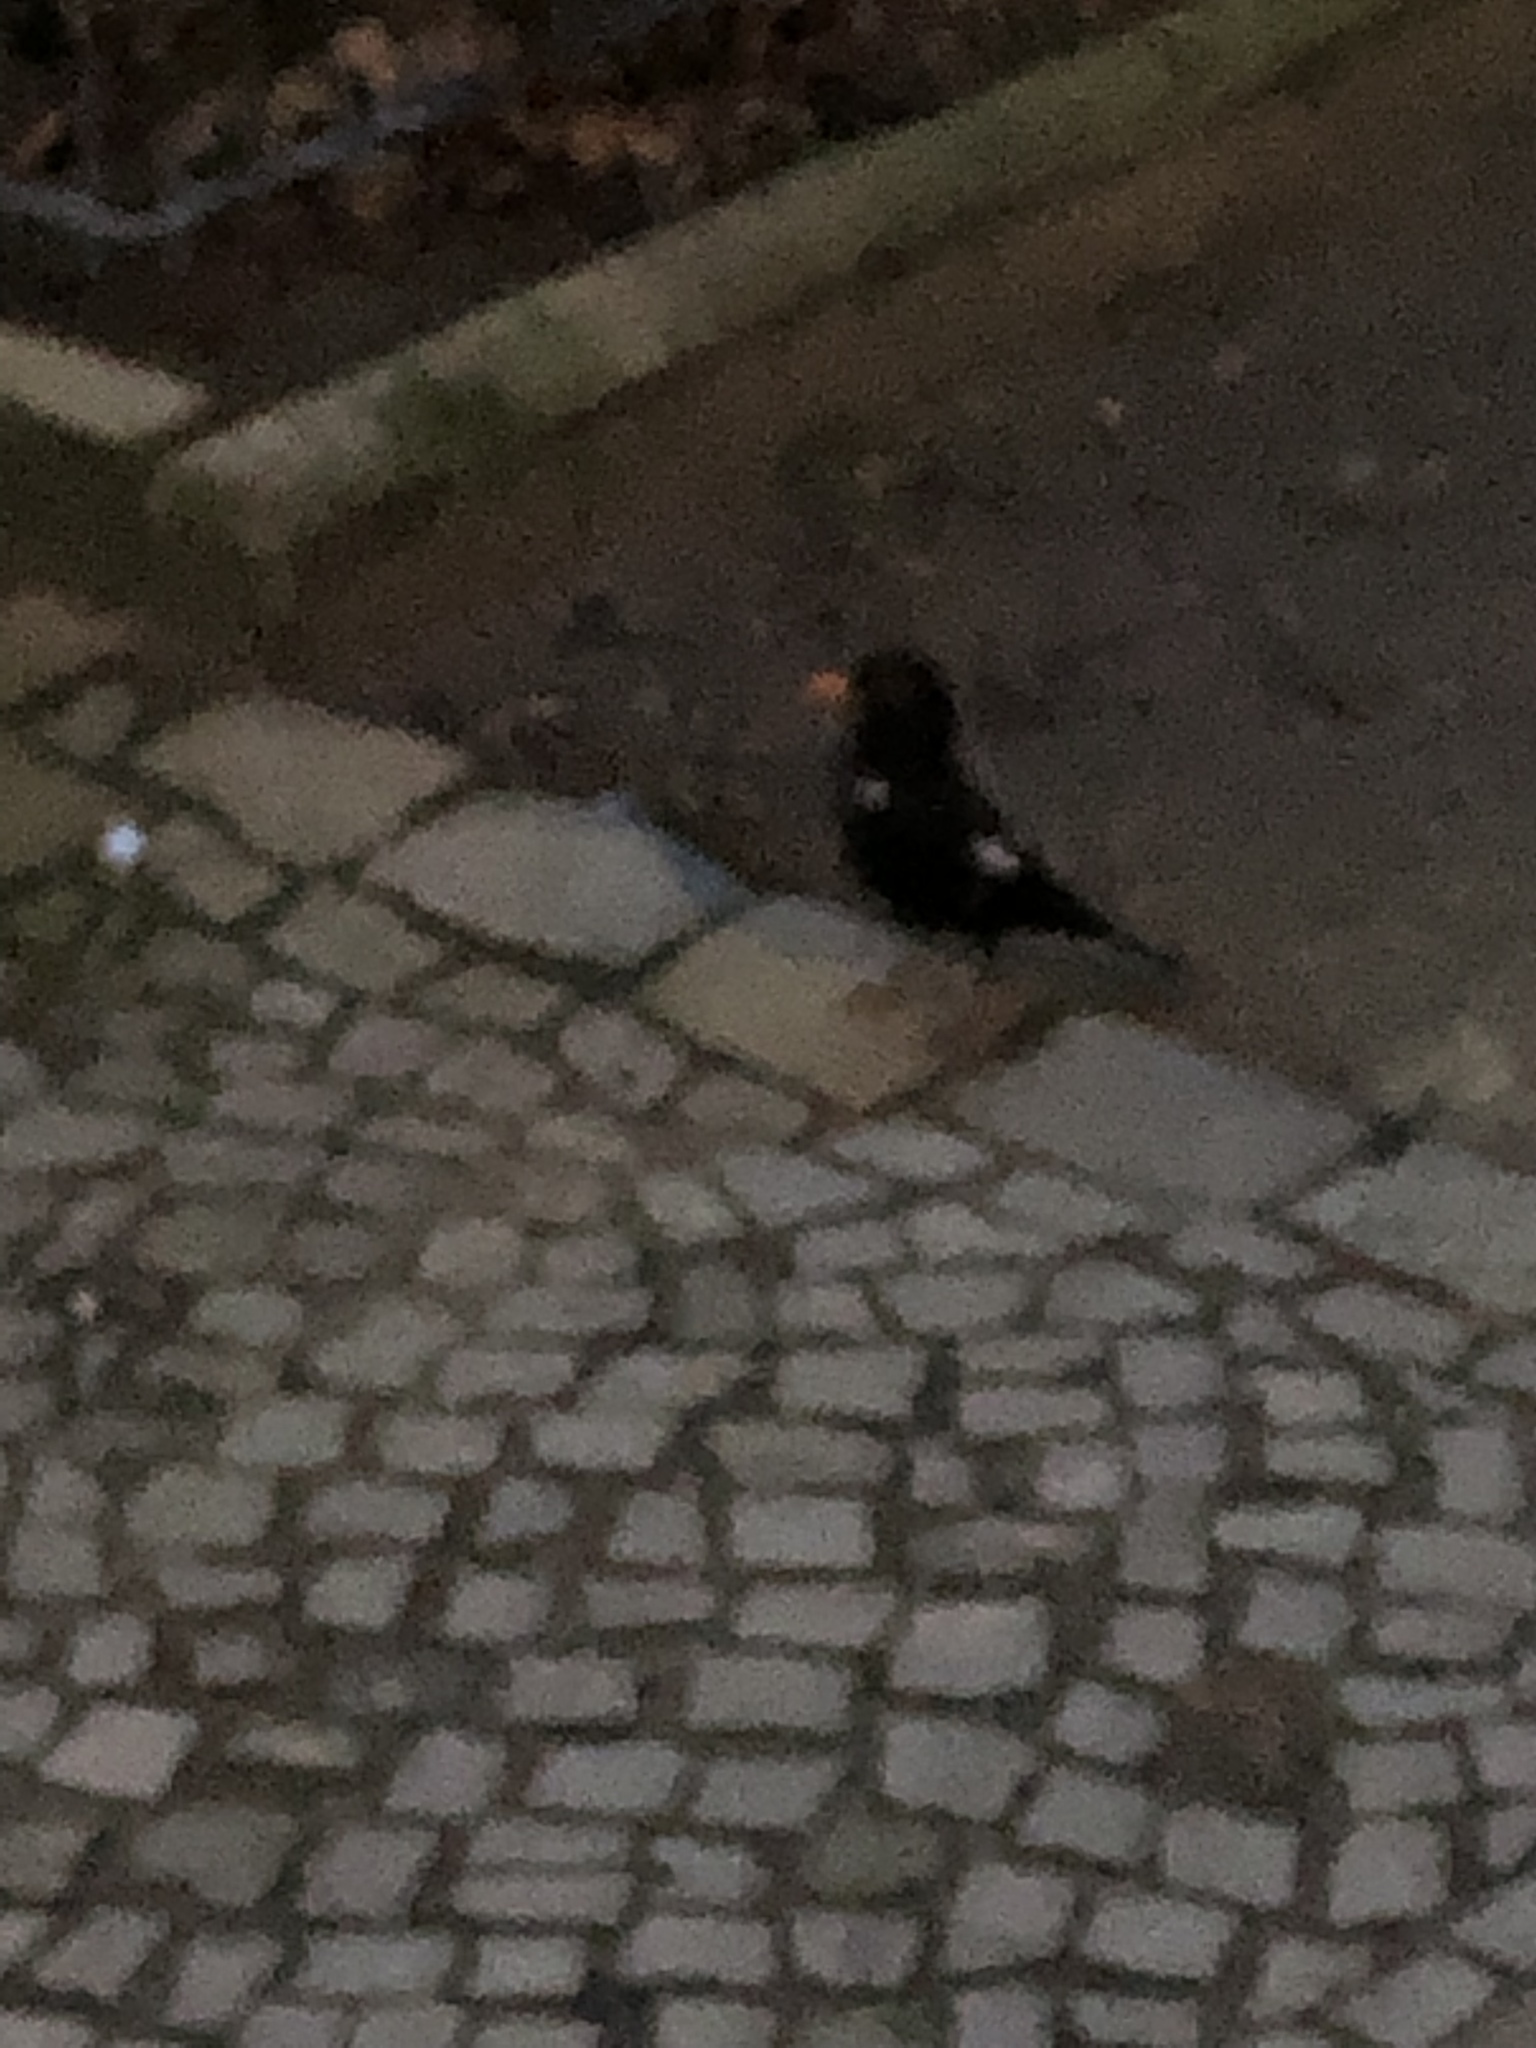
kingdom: Animalia
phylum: Chordata
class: Aves
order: Passeriformes
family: Turdidae
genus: Turdus
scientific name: Turdus merula
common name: Common blackbird
